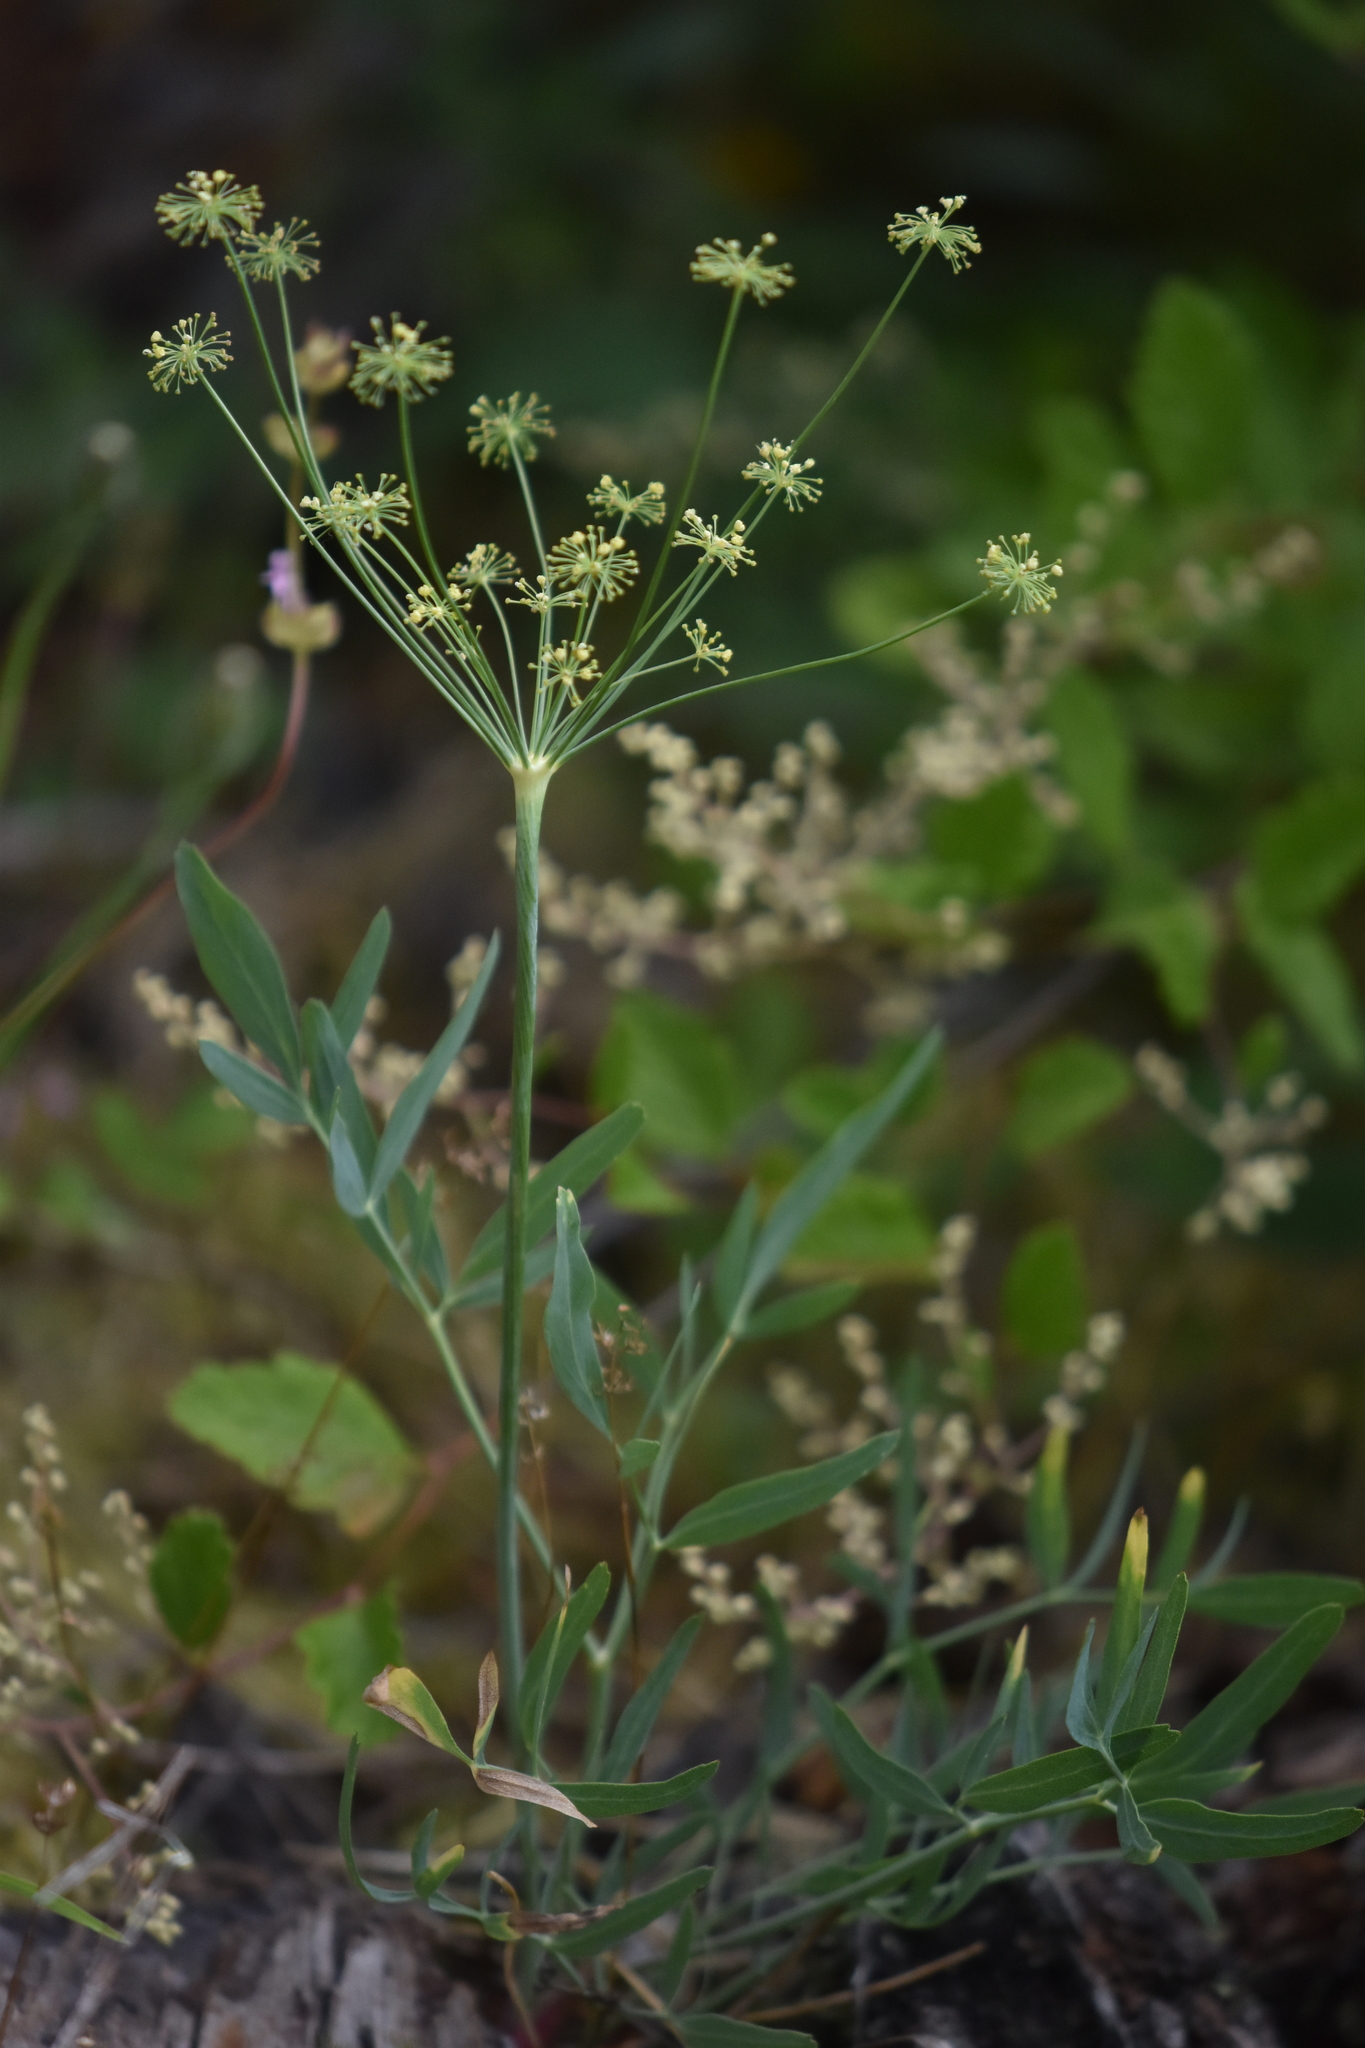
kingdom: Plantae
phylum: Tracheophyta
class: Magnoliopsida
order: Apiales
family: Apiaceae
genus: Lomatium
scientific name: Lomatium nudicaule
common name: Pestle lomatium
